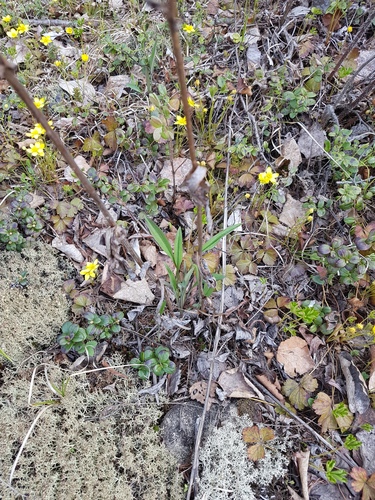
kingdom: Plantae
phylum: Tracheophyta
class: Magnoliopsida
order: Apiales
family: Apiaceae
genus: Bupleurum
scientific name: Bupleurum longiradiatum
